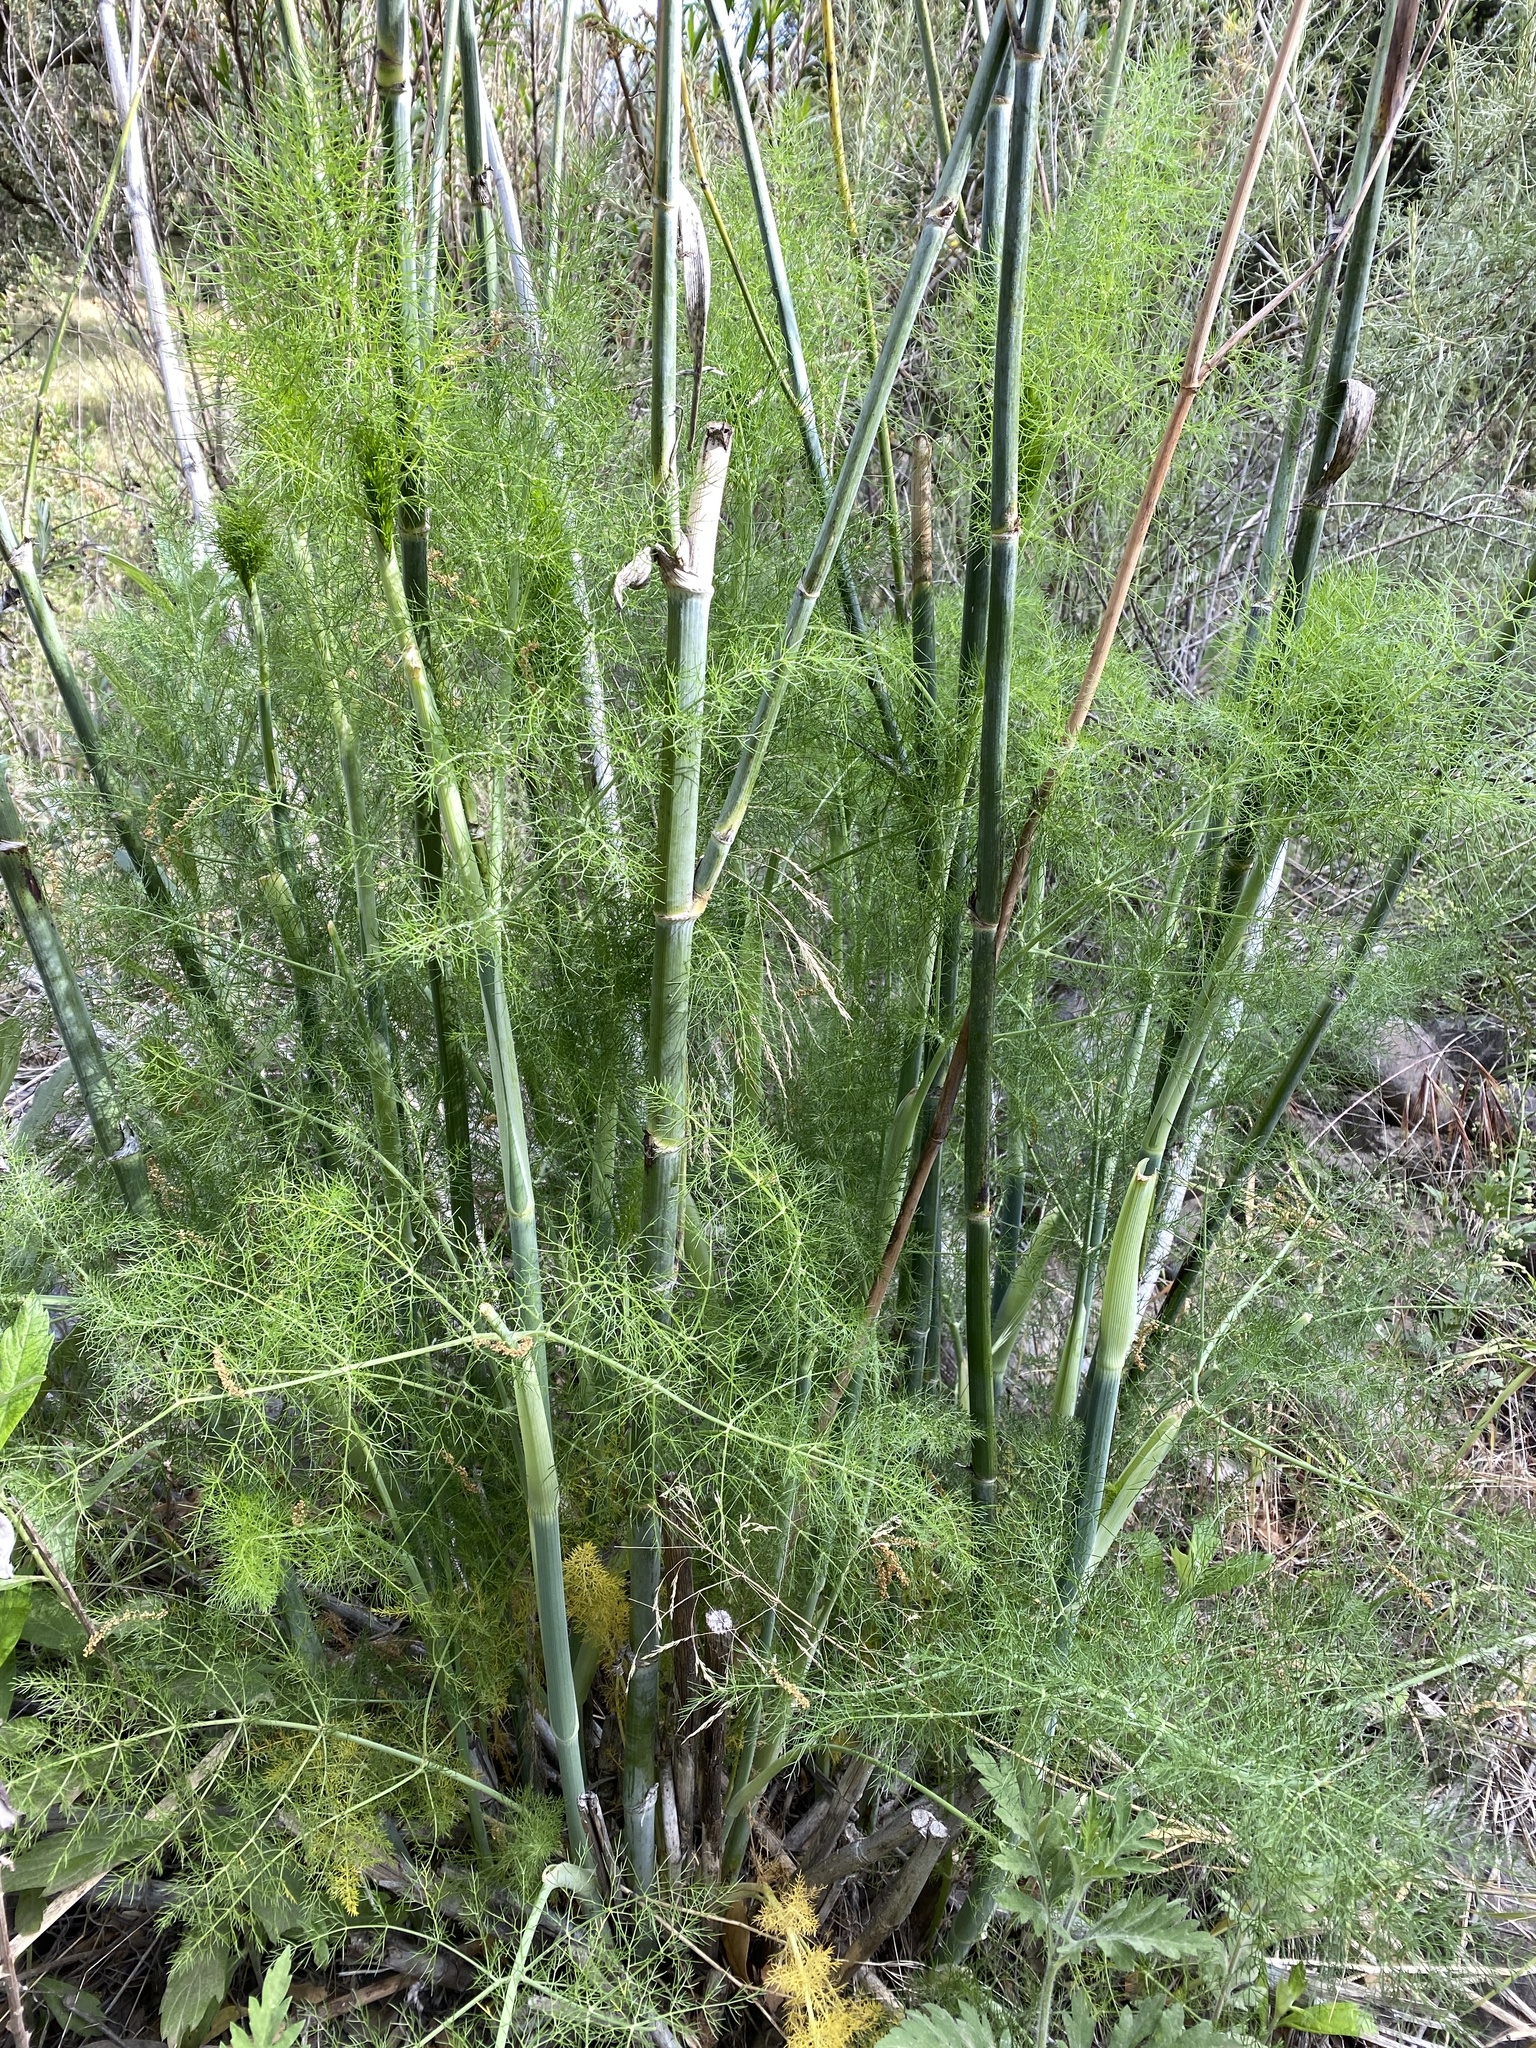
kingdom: Plantae
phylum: Tracheophyta
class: Magnoliopsida
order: Apiales
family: Apiaceae
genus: Foeniculum
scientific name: Foeniculum vulgare
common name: Fennel
